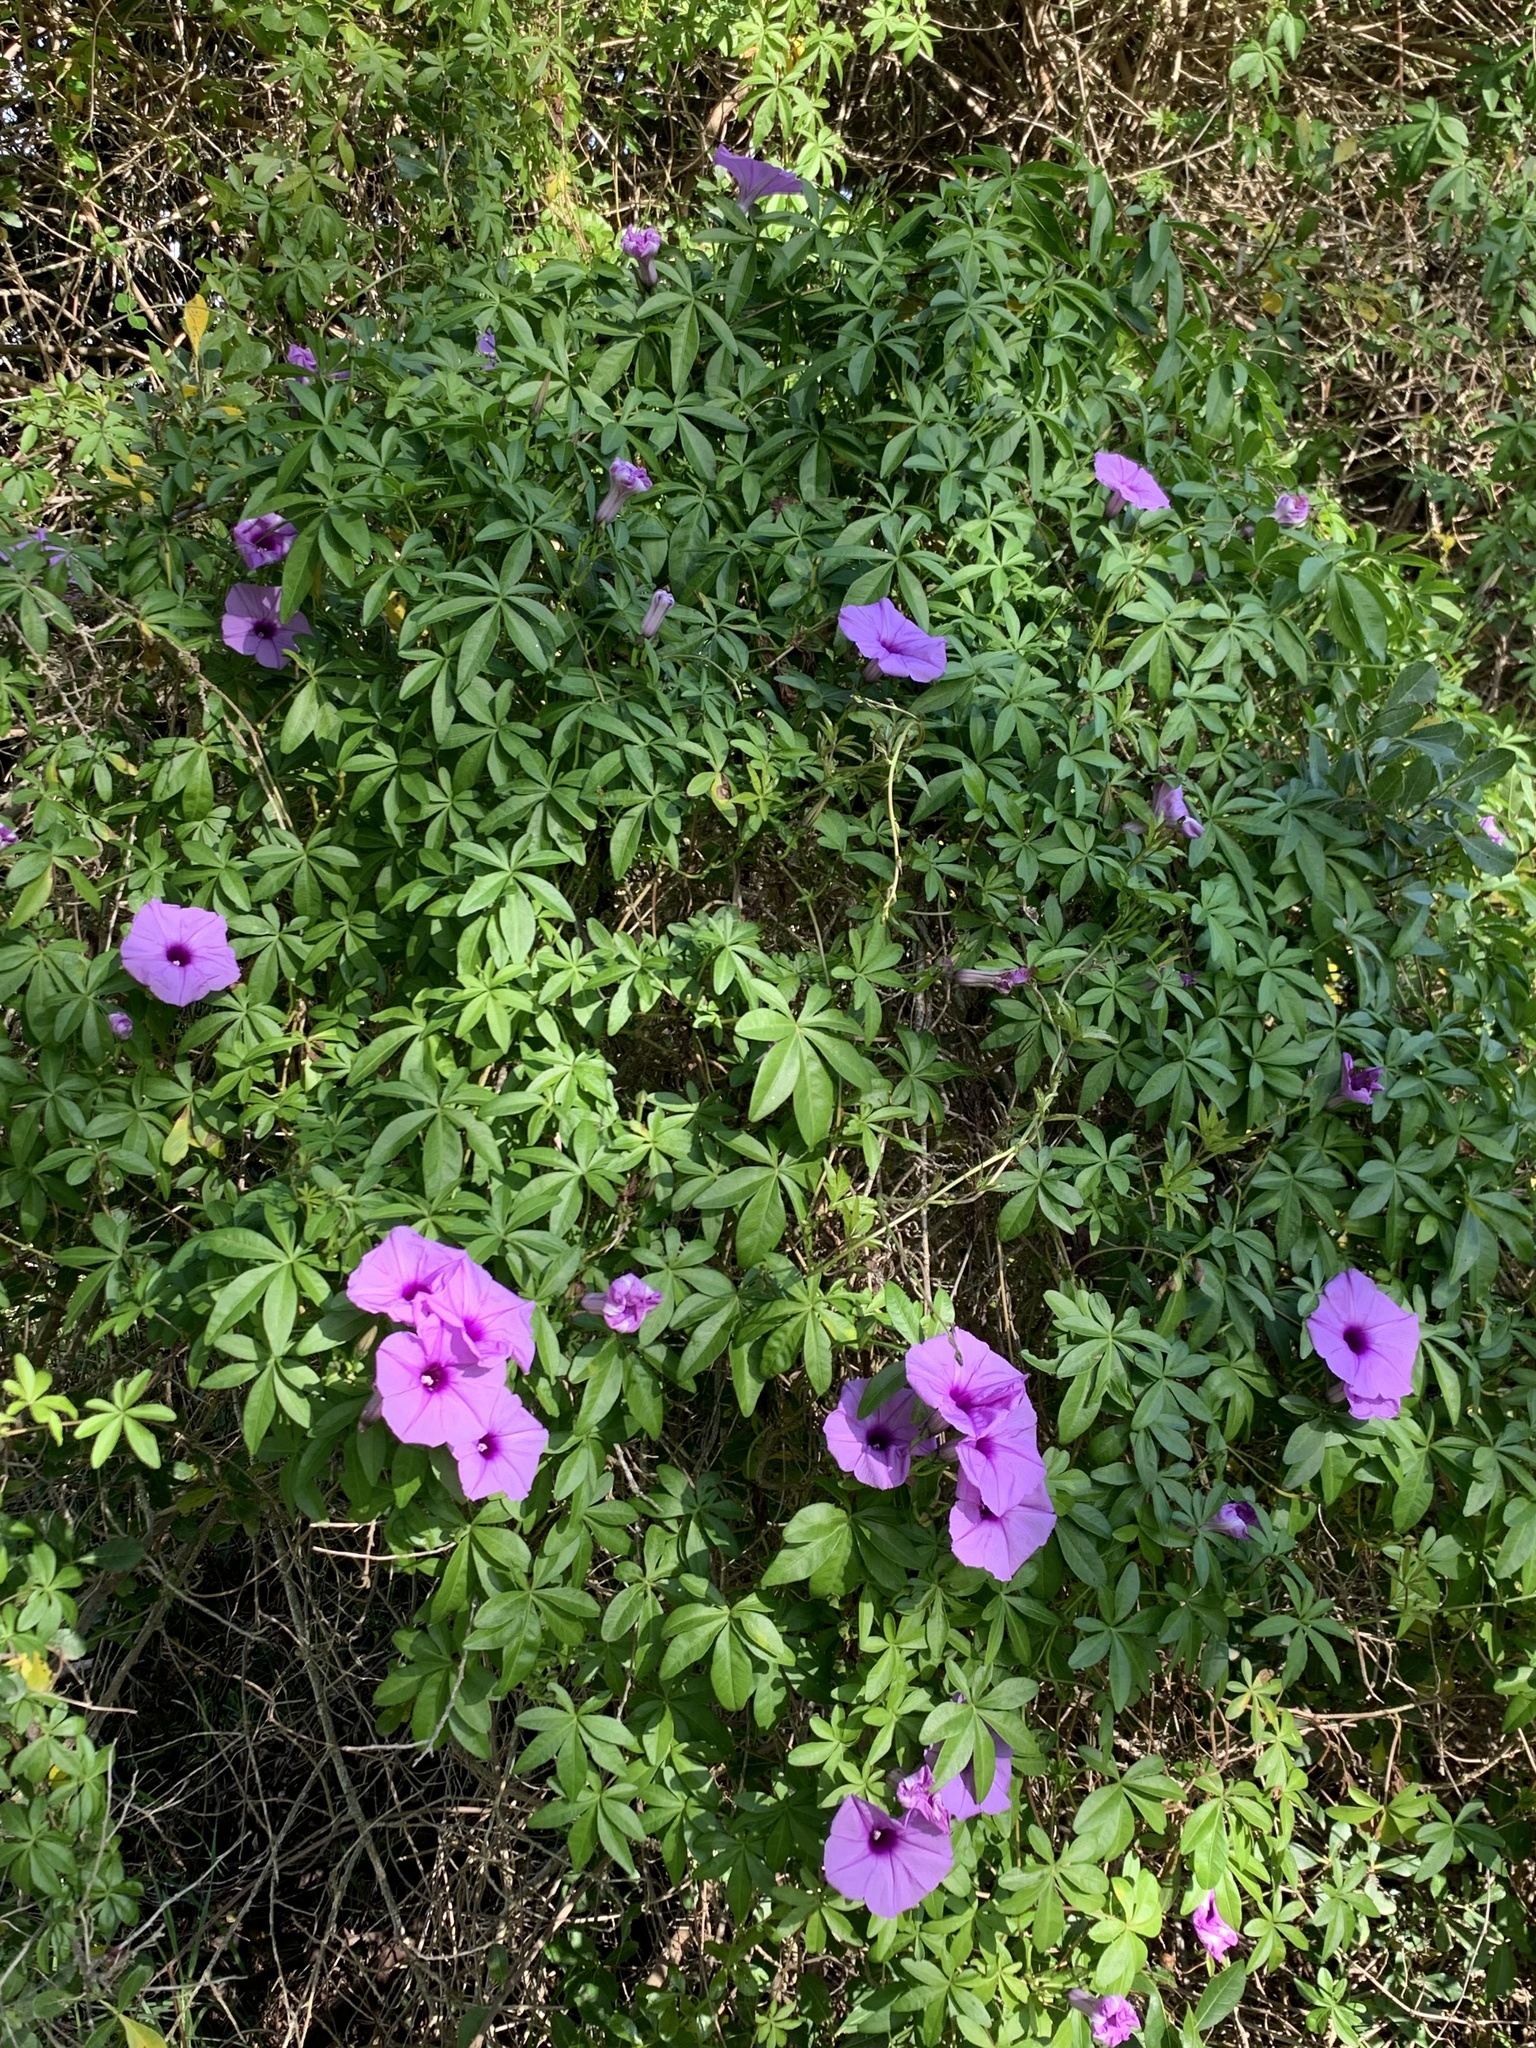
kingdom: Plantae
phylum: Tracheophyta
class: Magnoliopsida
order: Solanales
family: Convolvulaceae
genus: Ipomoea
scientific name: Ipomoea cairica
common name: Mile a minute vine
